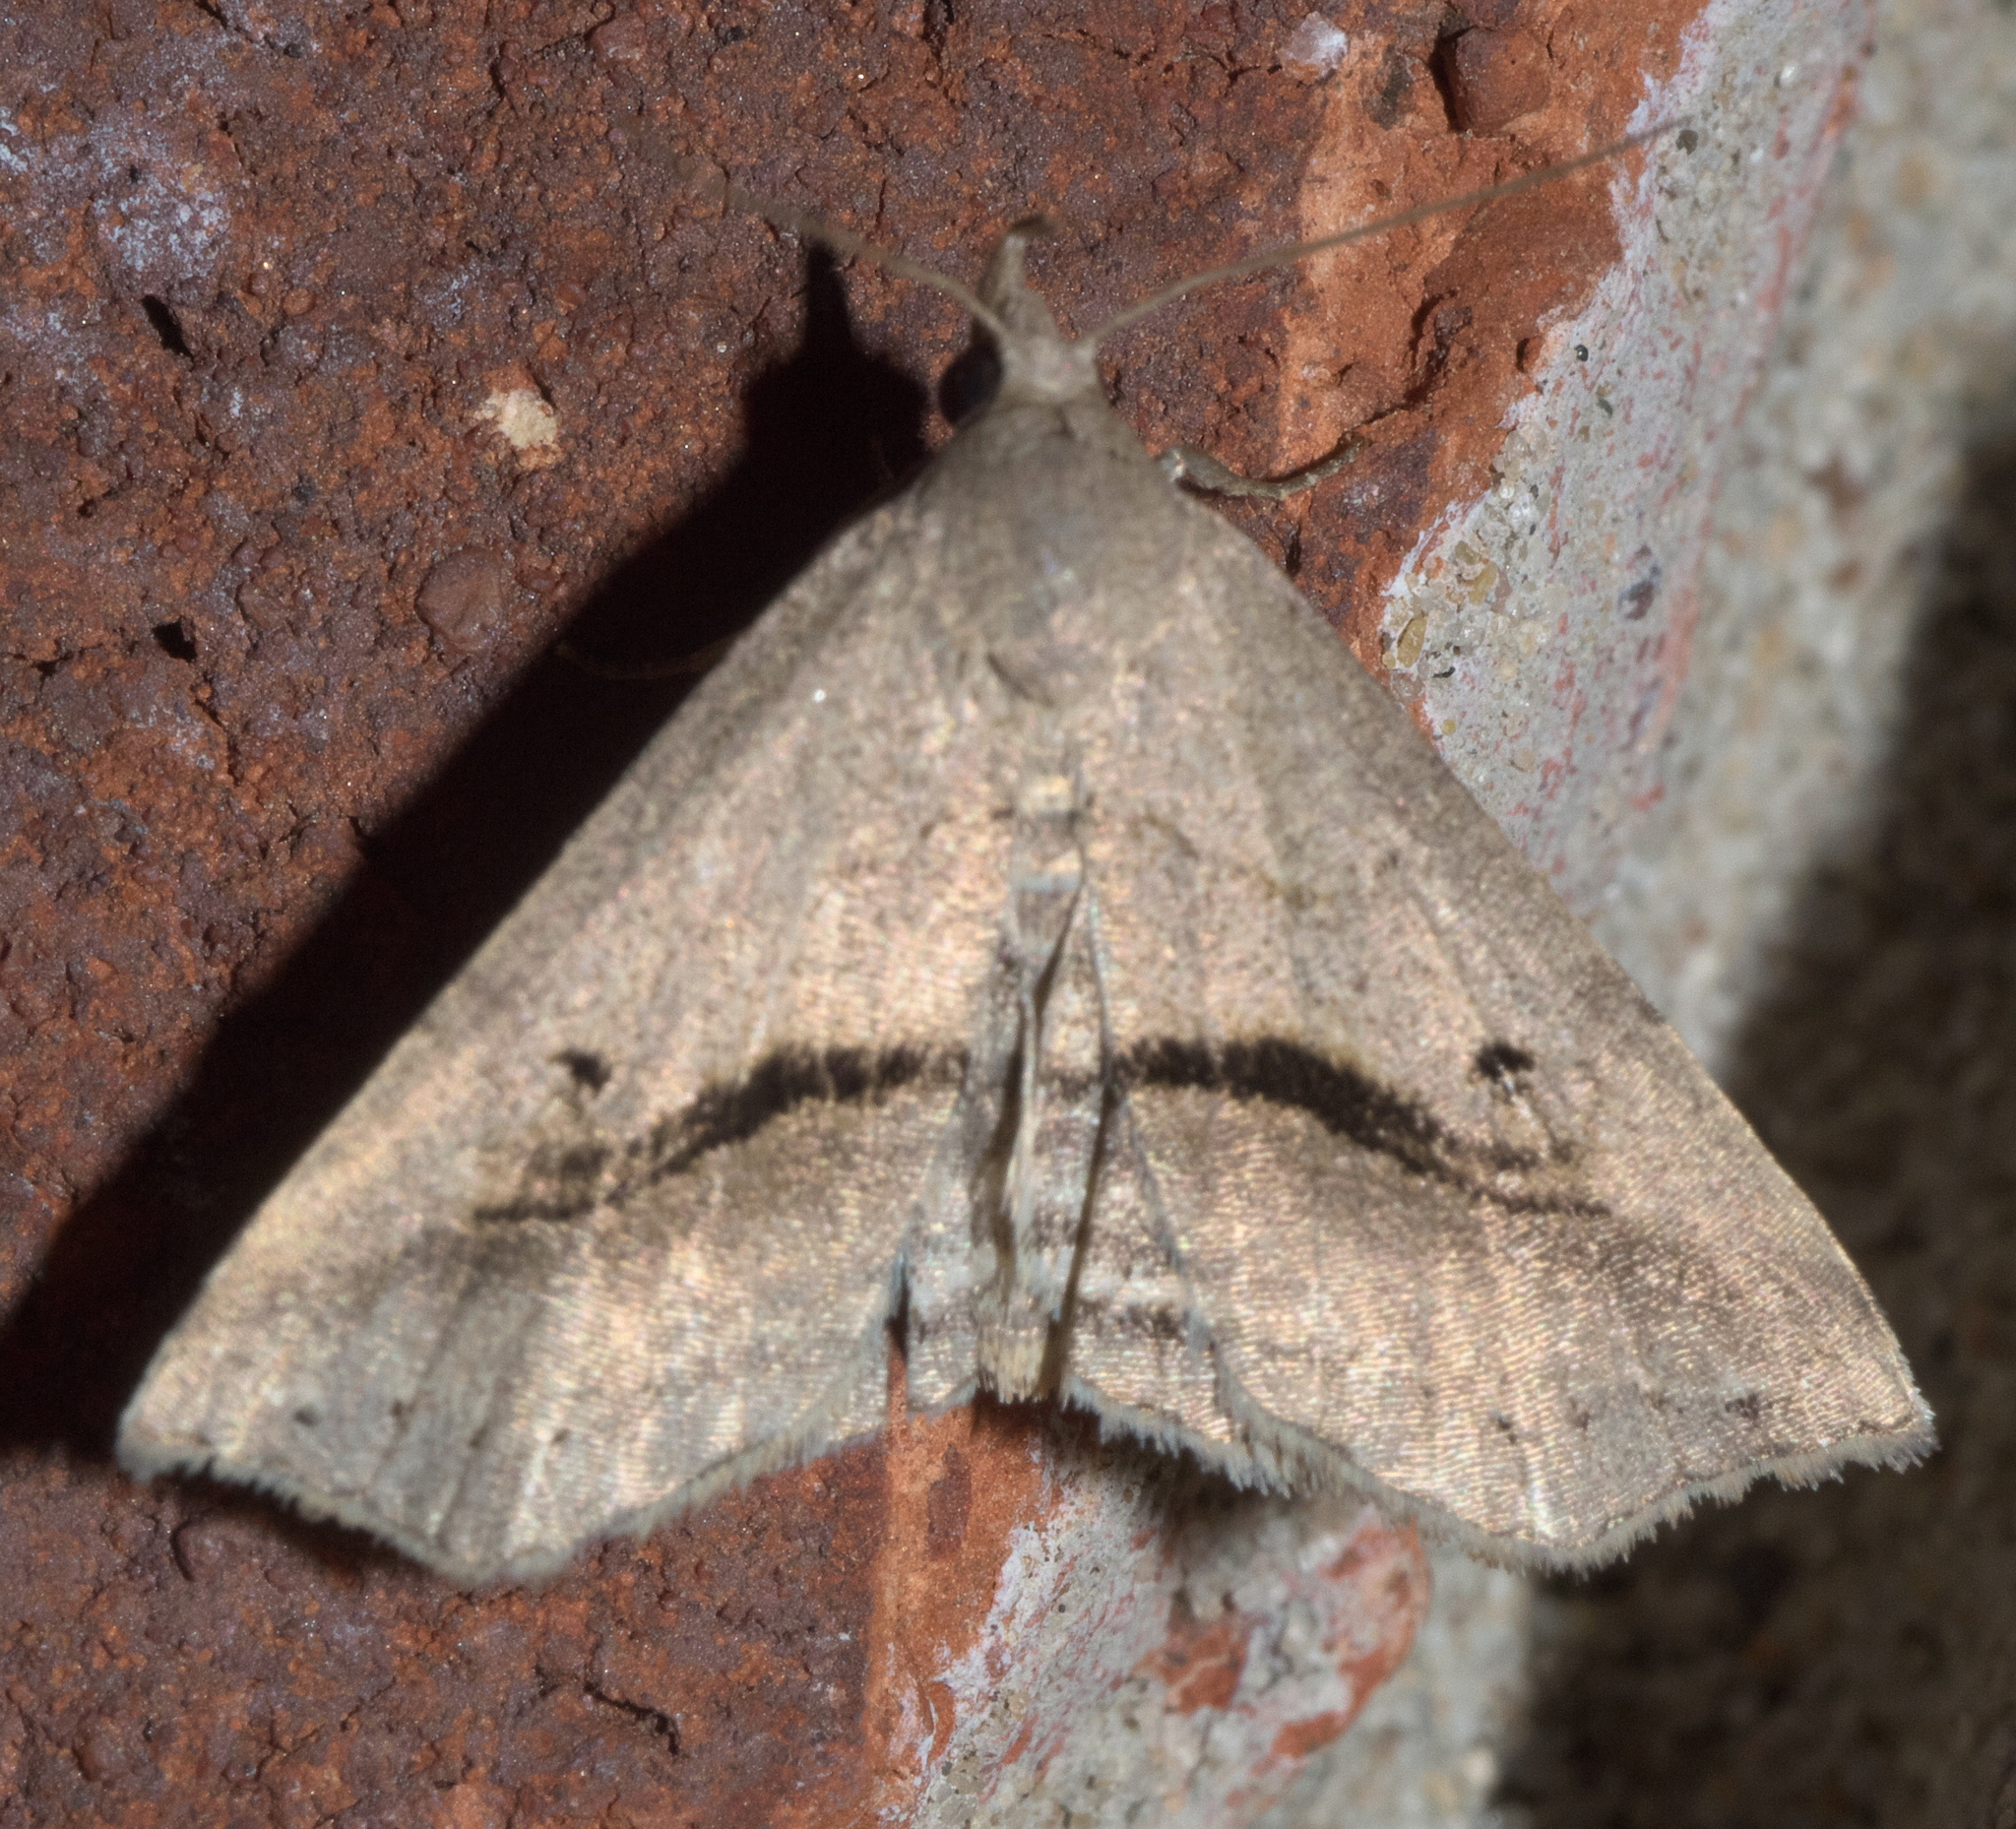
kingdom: Animalia
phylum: Arthropoda
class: Insecta
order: Lepidoptera
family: Erebidae
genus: Spargaloma
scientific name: Spargaloma perditalis
